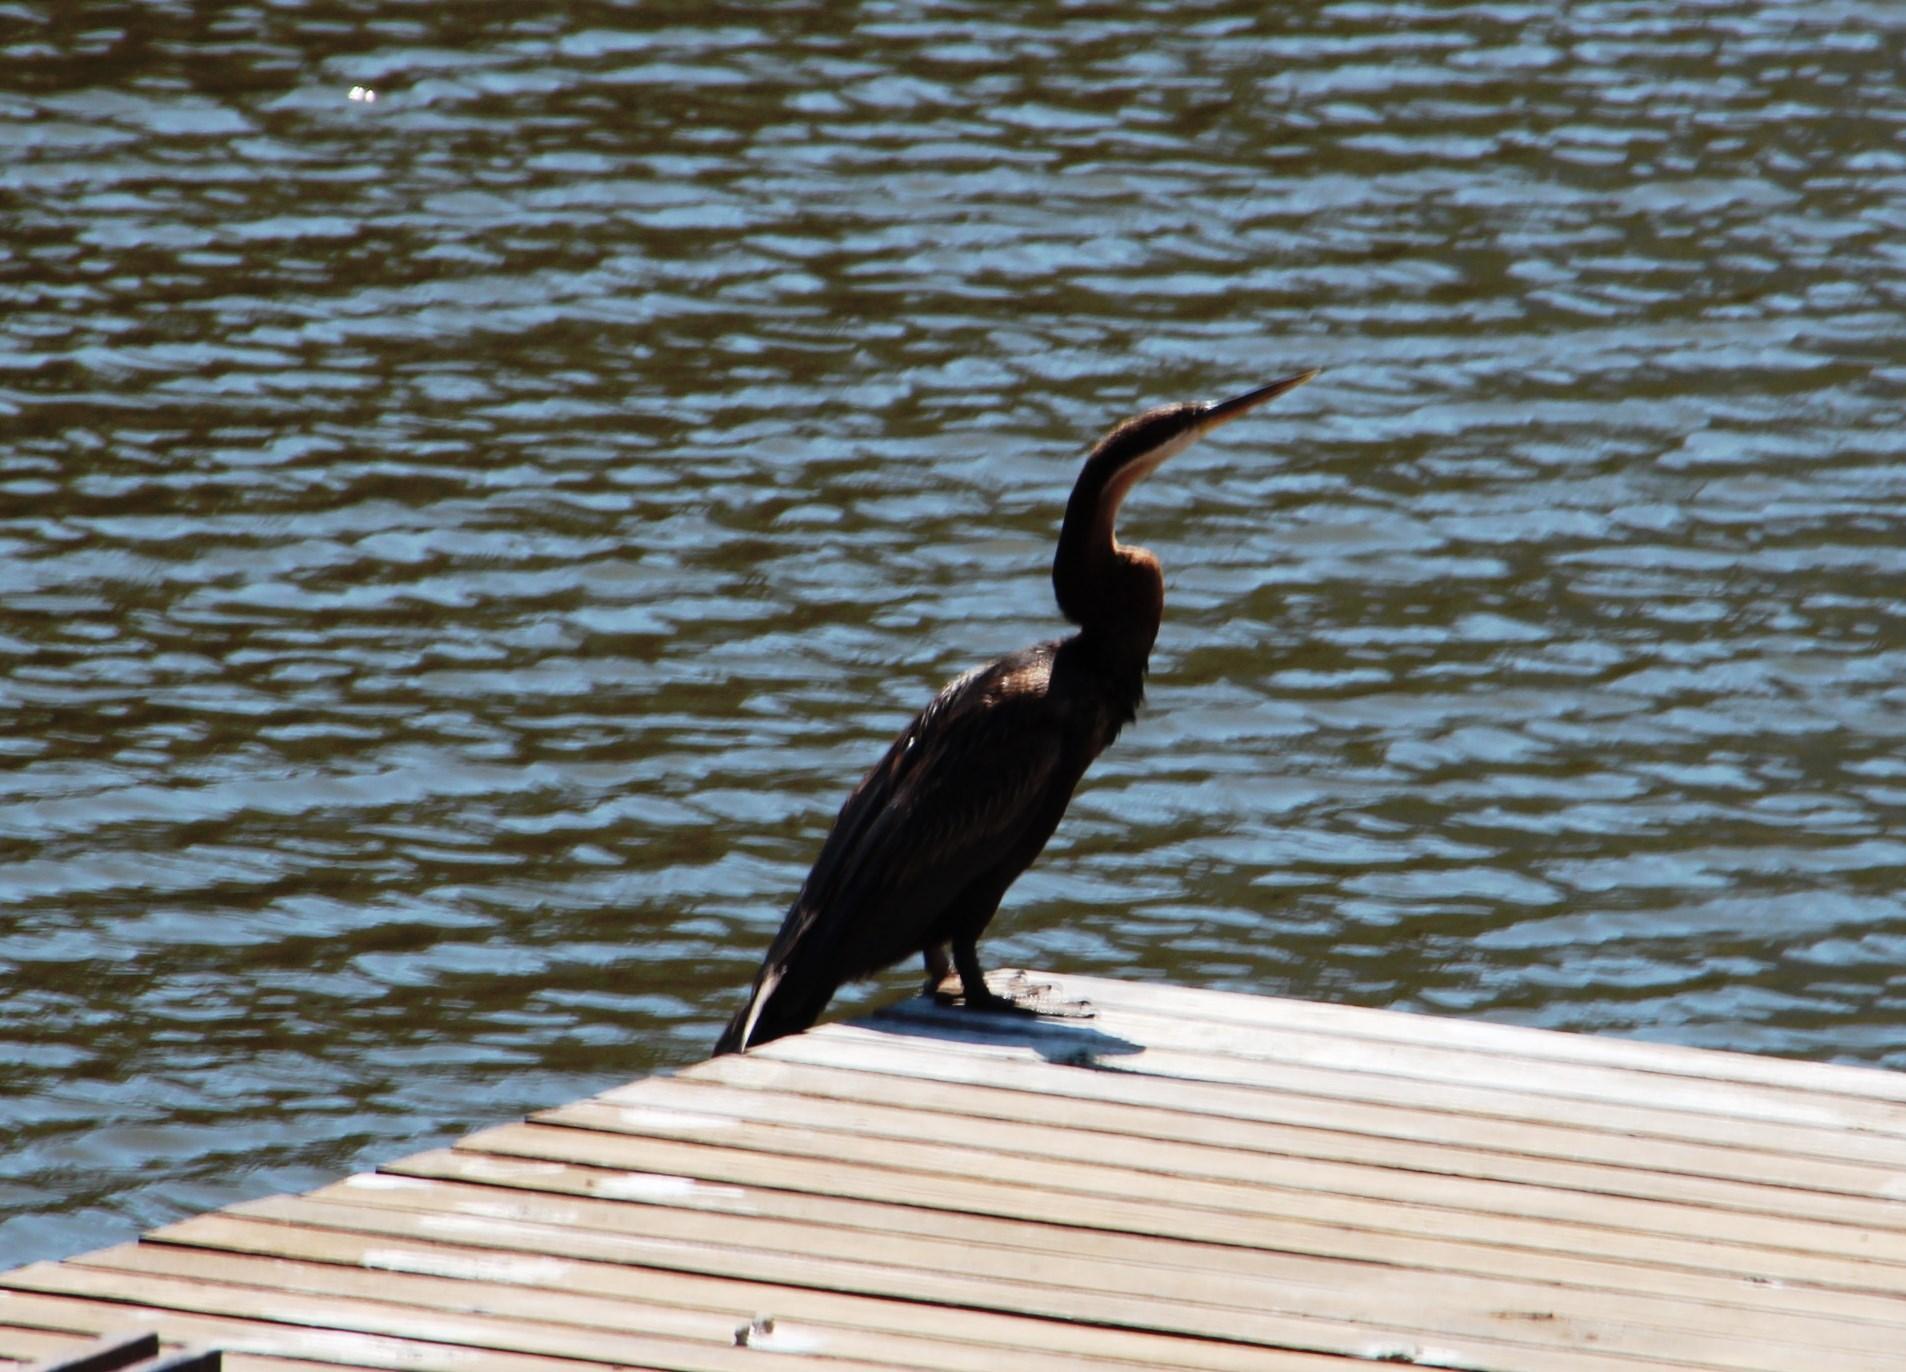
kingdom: Animalia
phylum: Chordata
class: Aves
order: Suliformes
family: Anhingidae
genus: Anhinga
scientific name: Anhinga rufa
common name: African darter
